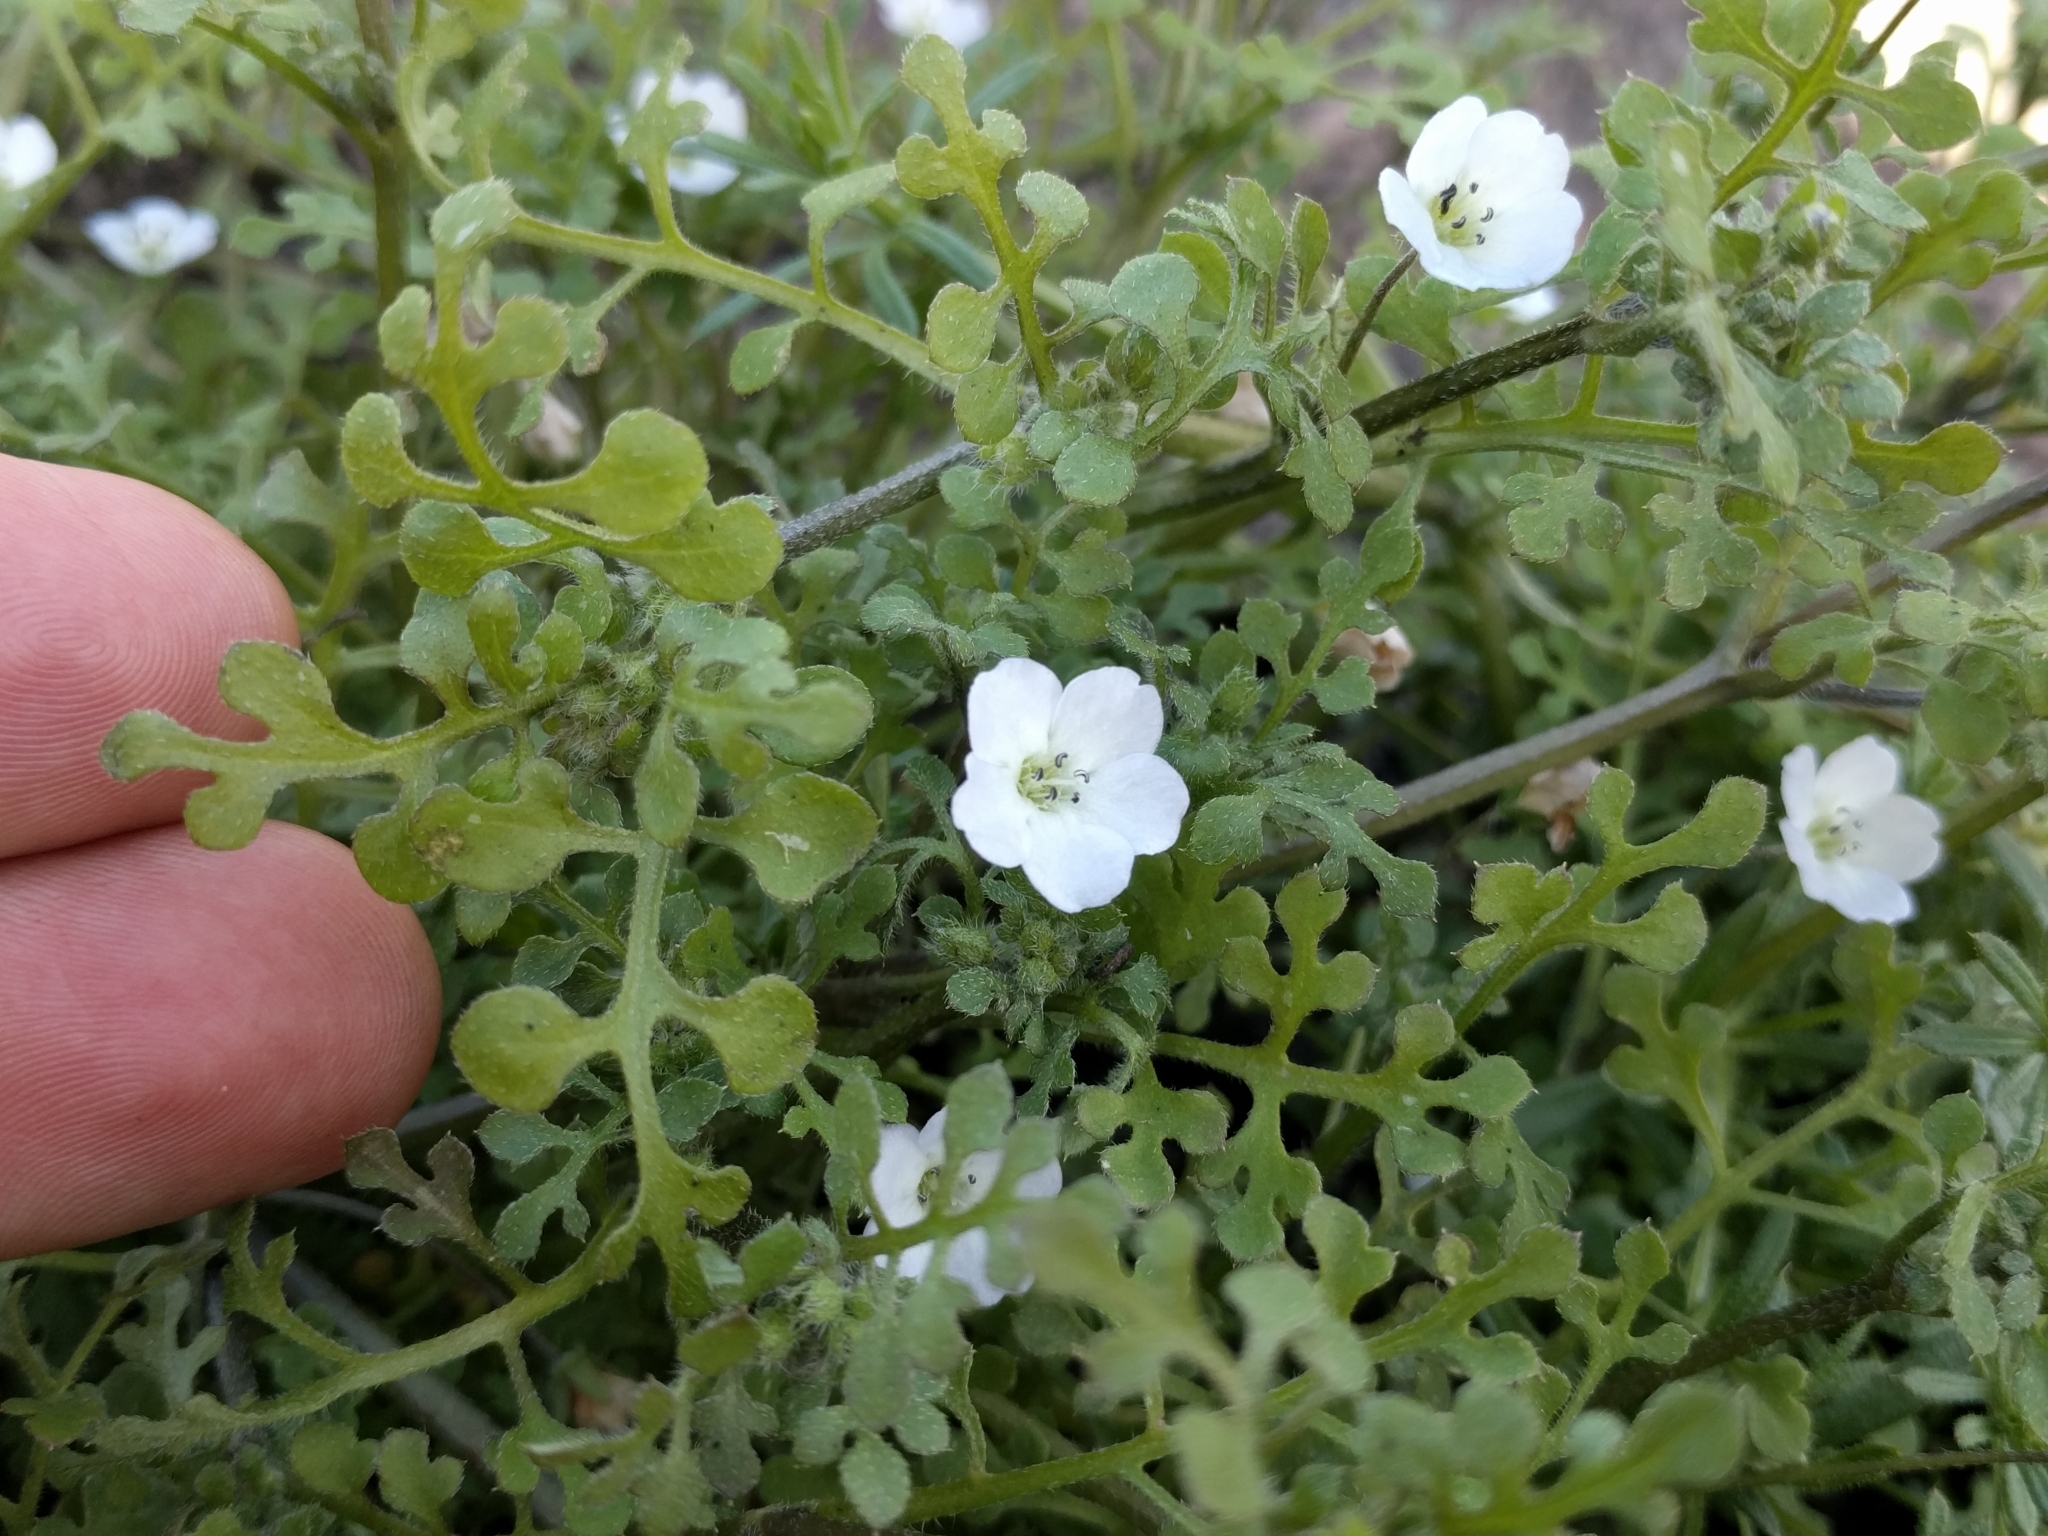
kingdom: Plantae
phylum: Tracheophyta
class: Magnoliopsida
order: Boraginales
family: Hydrophyllaceae
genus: Nemophila
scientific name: Nemophila heterophylla
